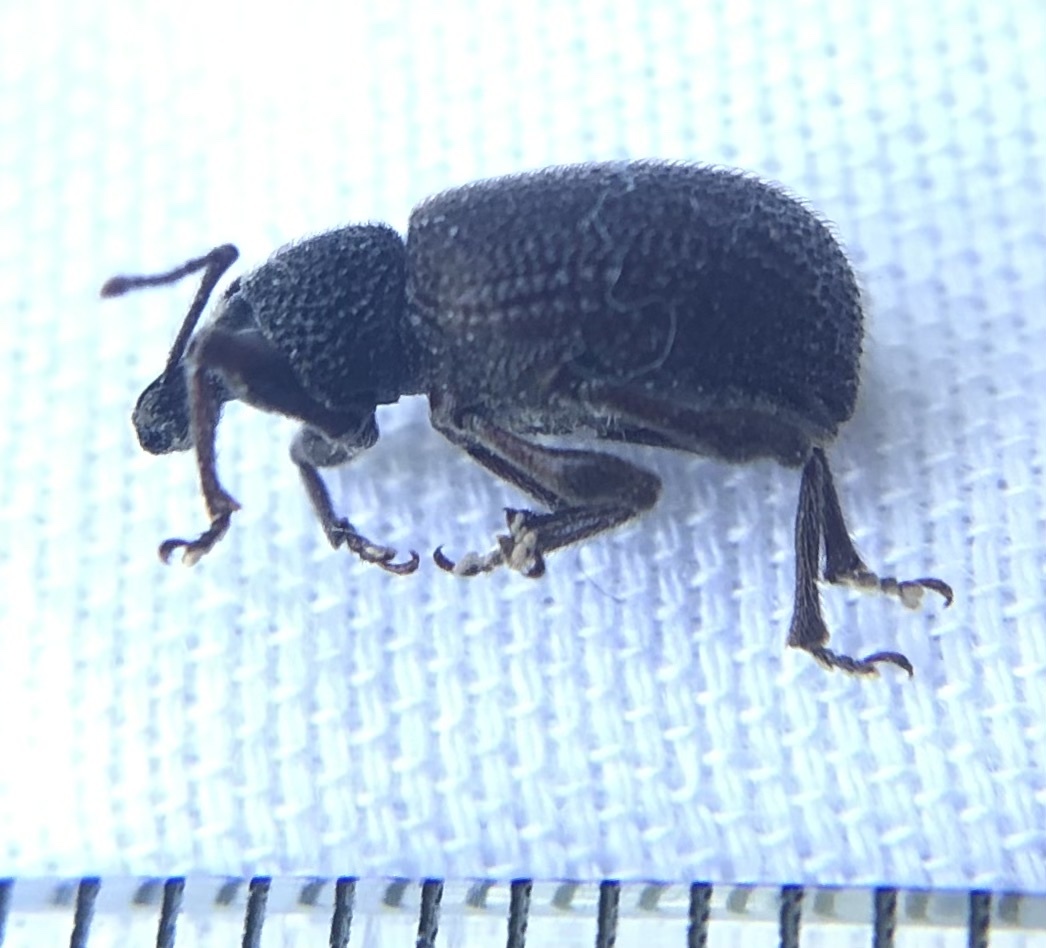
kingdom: Animalia
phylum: Arthropoda
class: Insecta
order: Coleoptera
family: Curculionidae
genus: Otiorhynchus
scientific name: Otiorhynchus rugosostriatus
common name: Weevil
